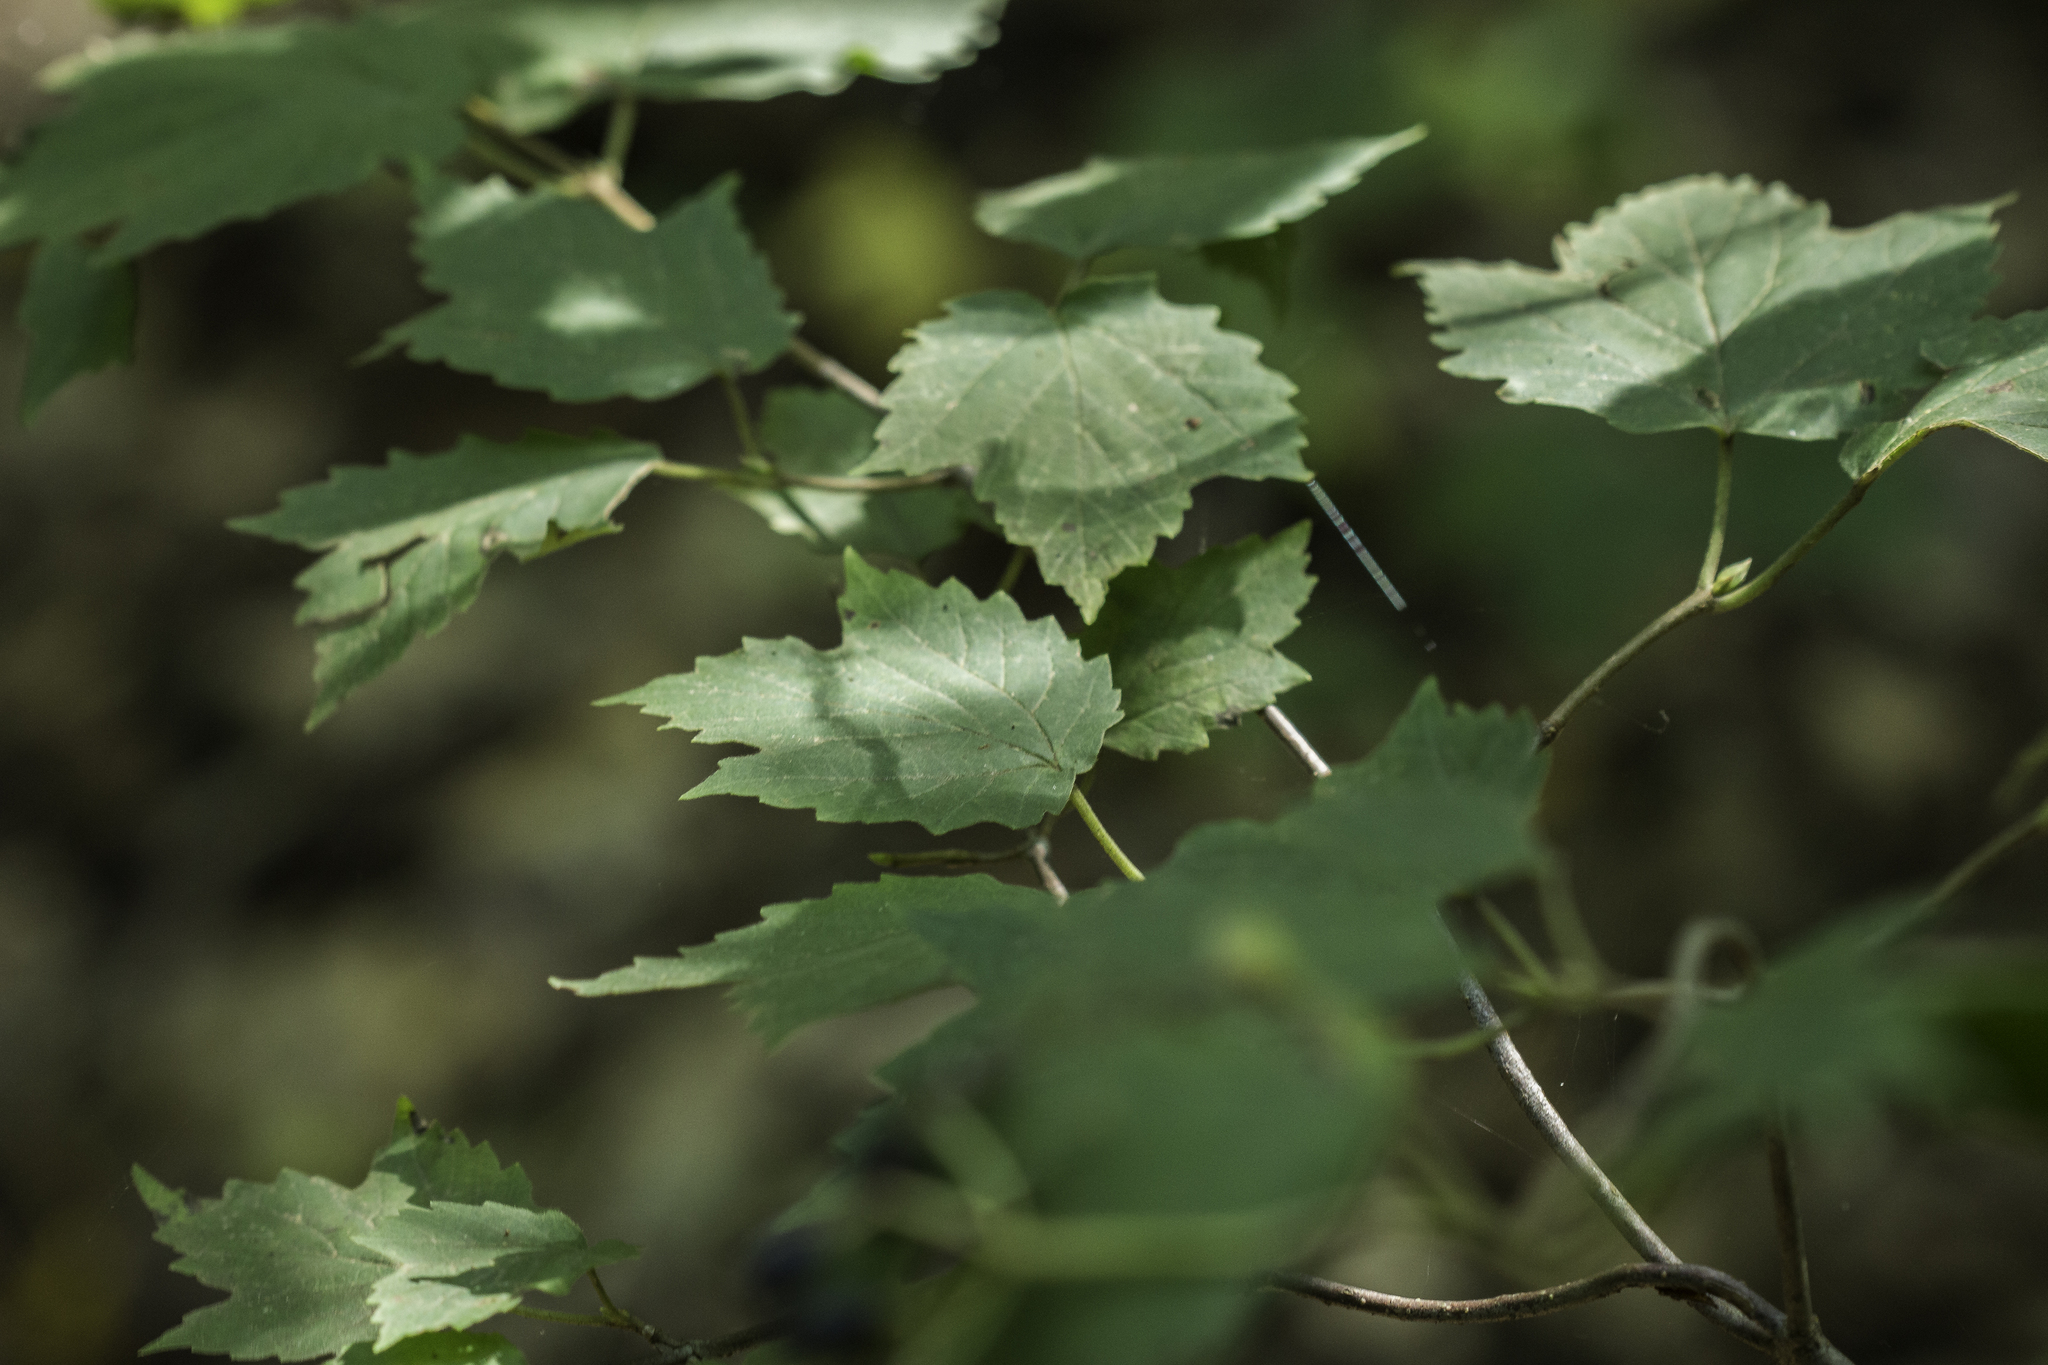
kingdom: Plantae
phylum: Tracheophyta
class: Magnoliopsida
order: Dipsacales
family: Viburnaceae
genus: Viburnum
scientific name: Viburnum acerifolium
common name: Dockmackie
